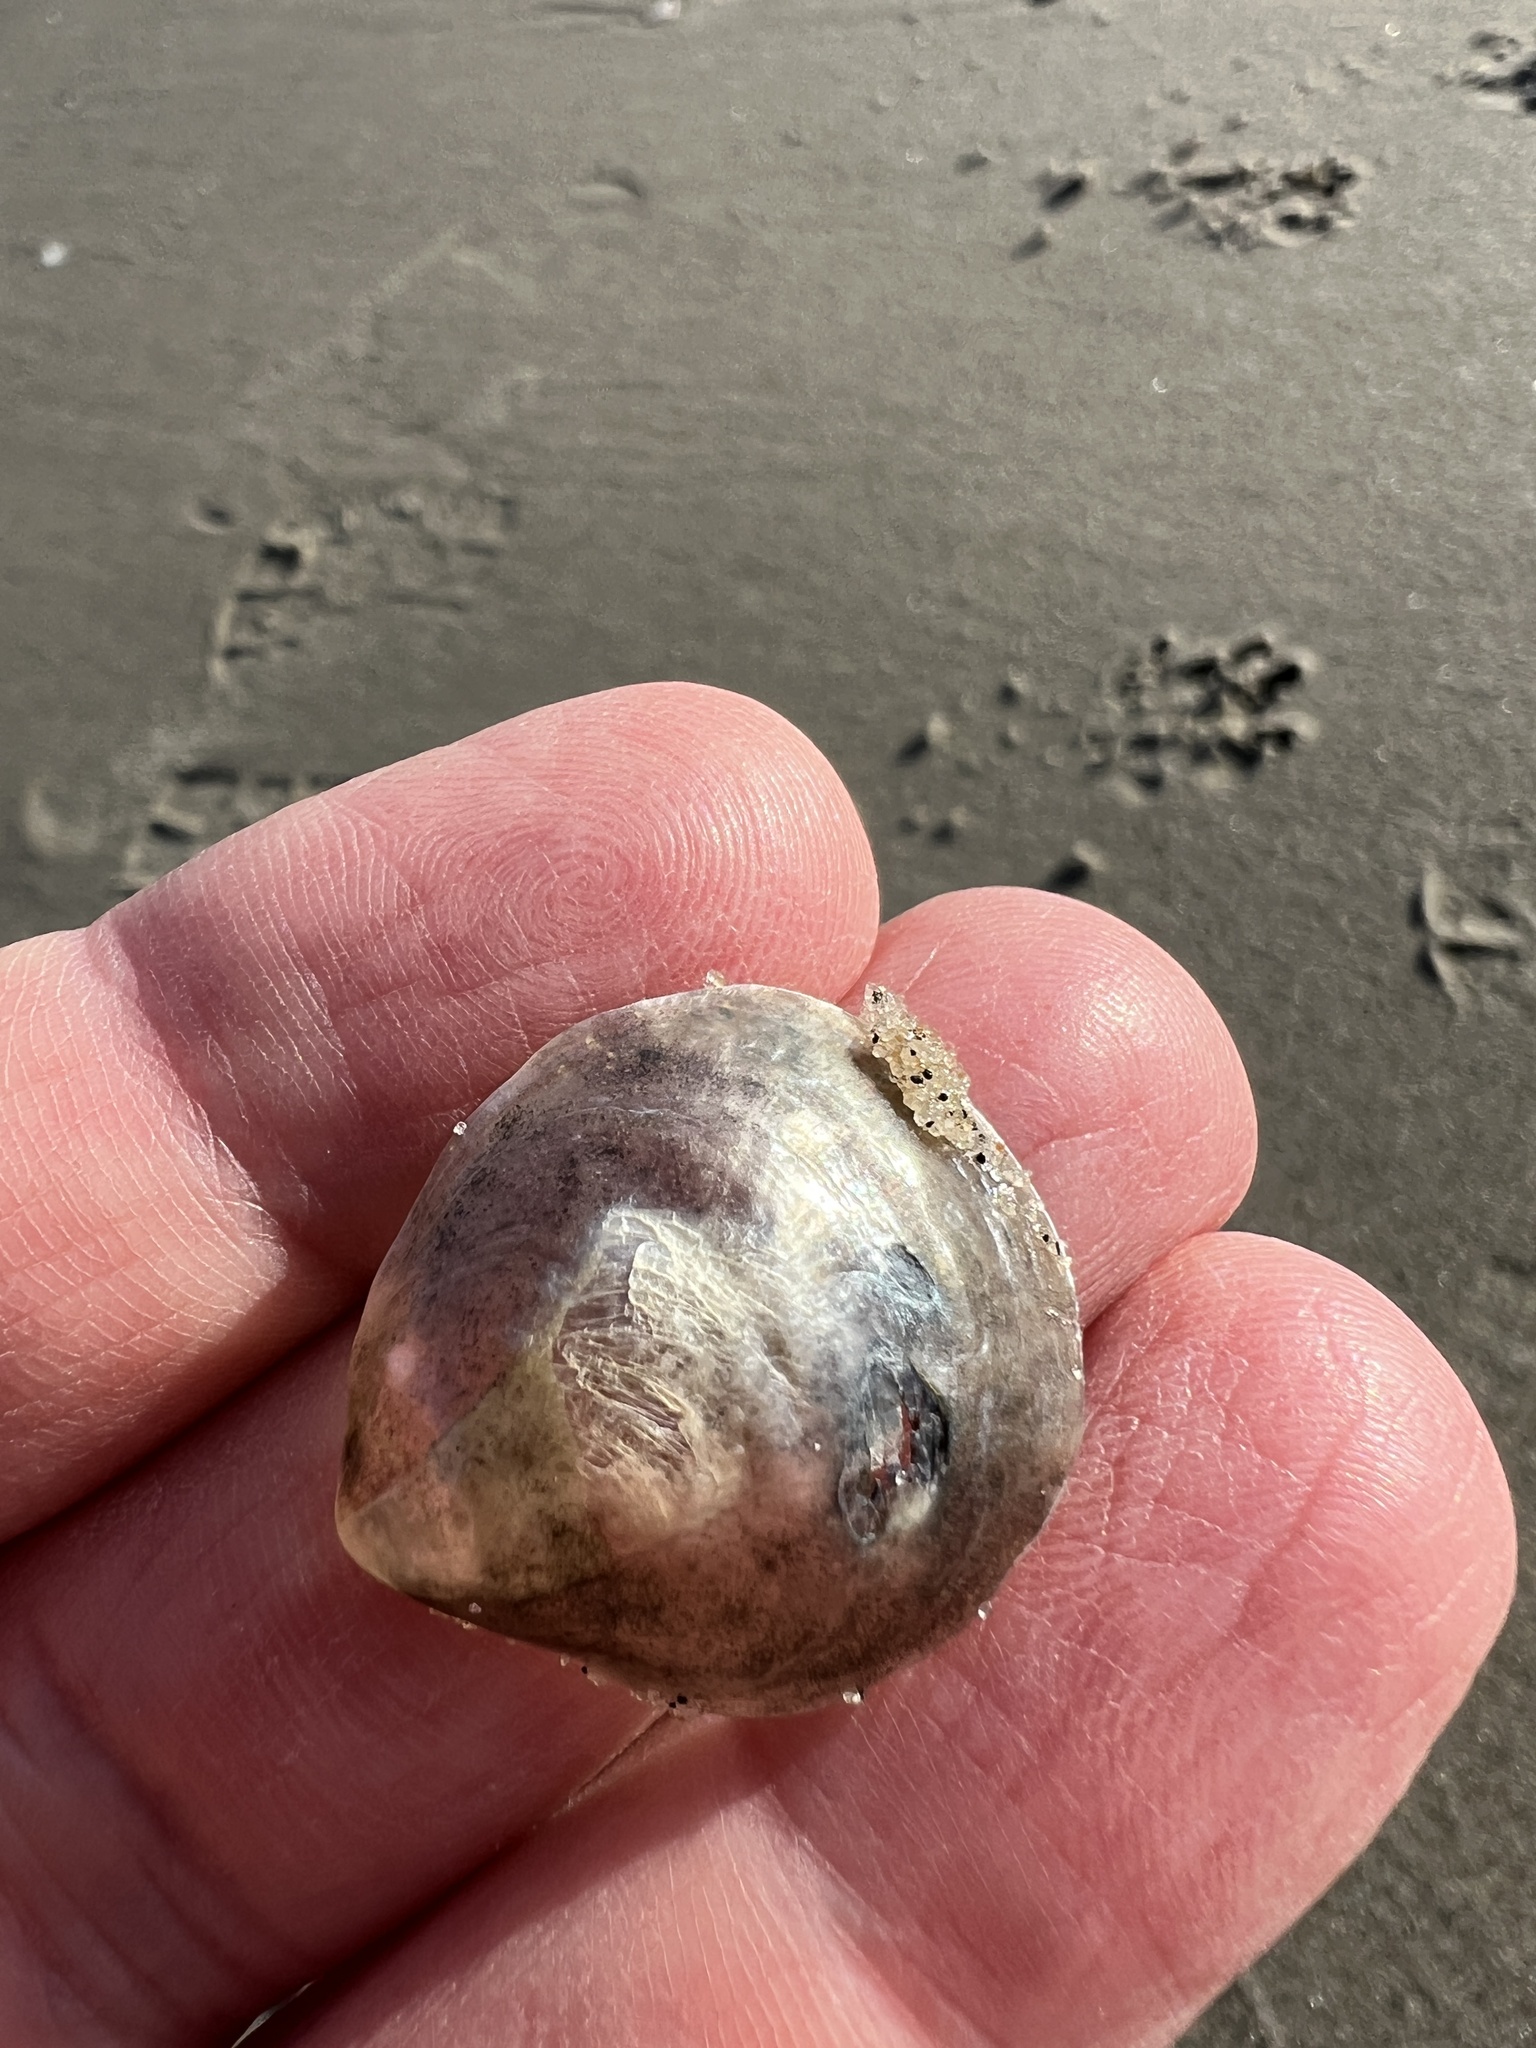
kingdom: Animalia
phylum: Mollusca
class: Bivalvia
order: Pectinida
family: Anomiidae
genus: Anomia
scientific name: Anomia simplex
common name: Common jingle shell
